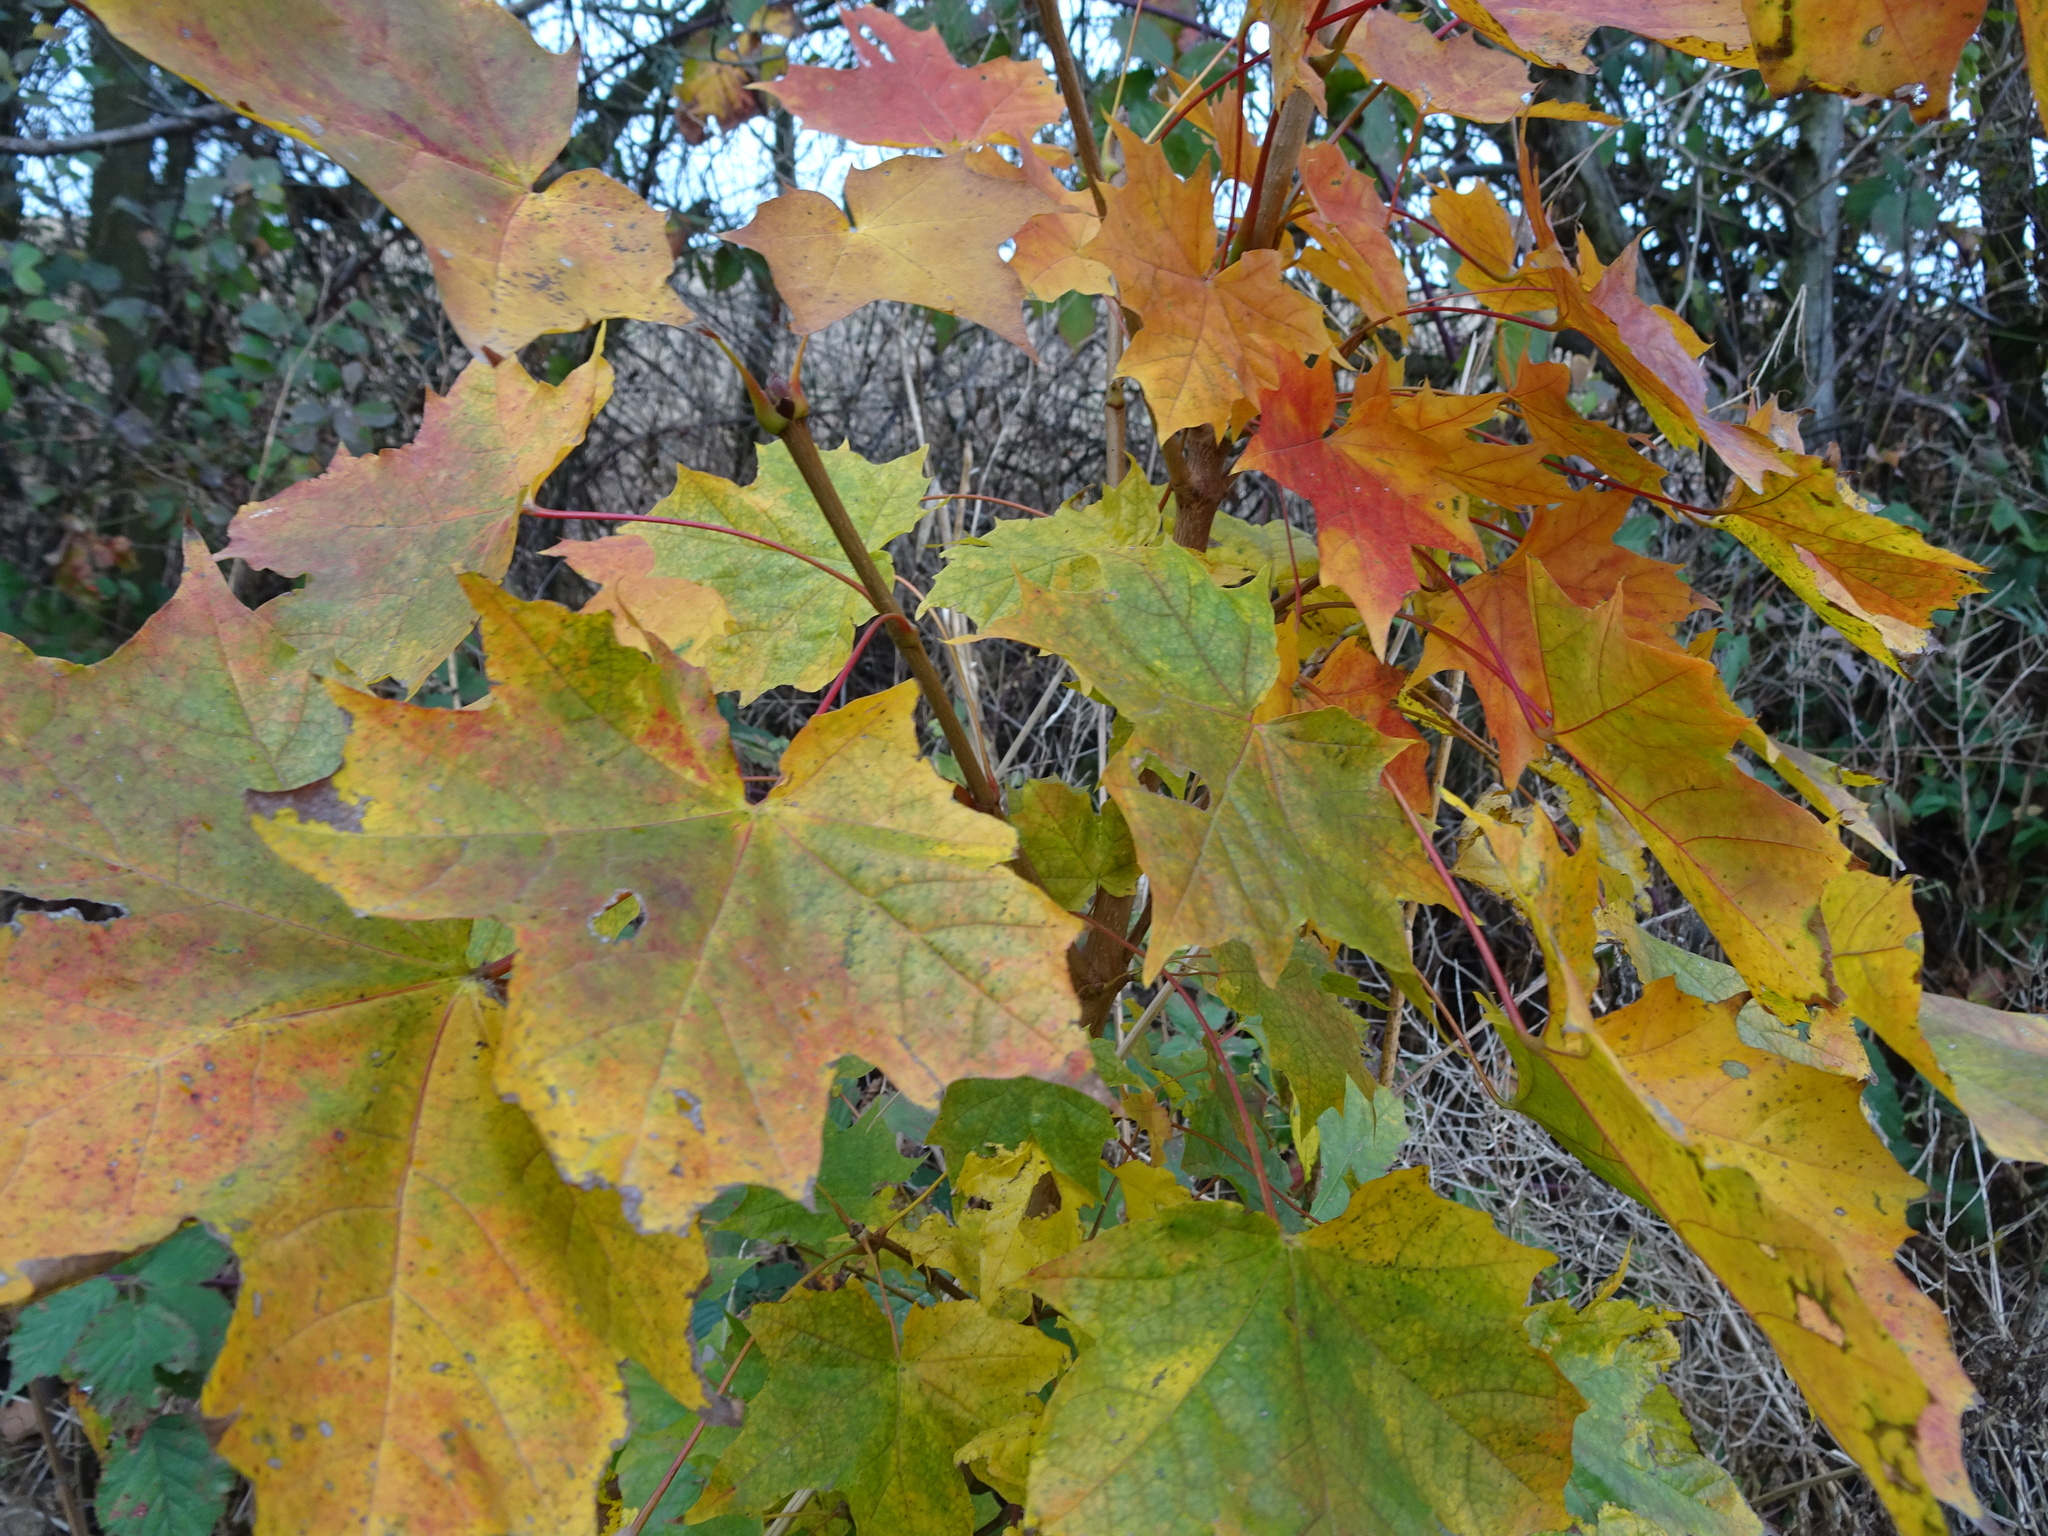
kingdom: Plantae
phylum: Tracheophyta
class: Magnoliopsida
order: Sapindales
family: Sapindaceae
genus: Acer
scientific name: Acer platanoides
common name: Norway maple
